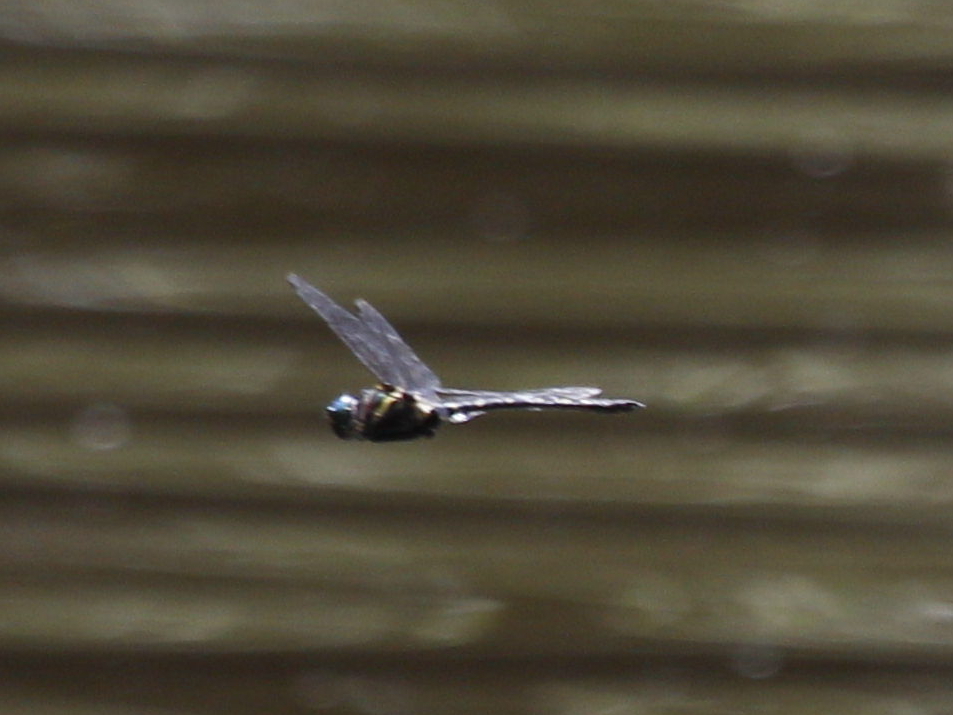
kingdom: Animalia
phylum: Arthropoda
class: Insecta
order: Odonata
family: Macromiidae
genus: Macromia
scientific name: Macromia taeniolata
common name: Royal river cruiser
